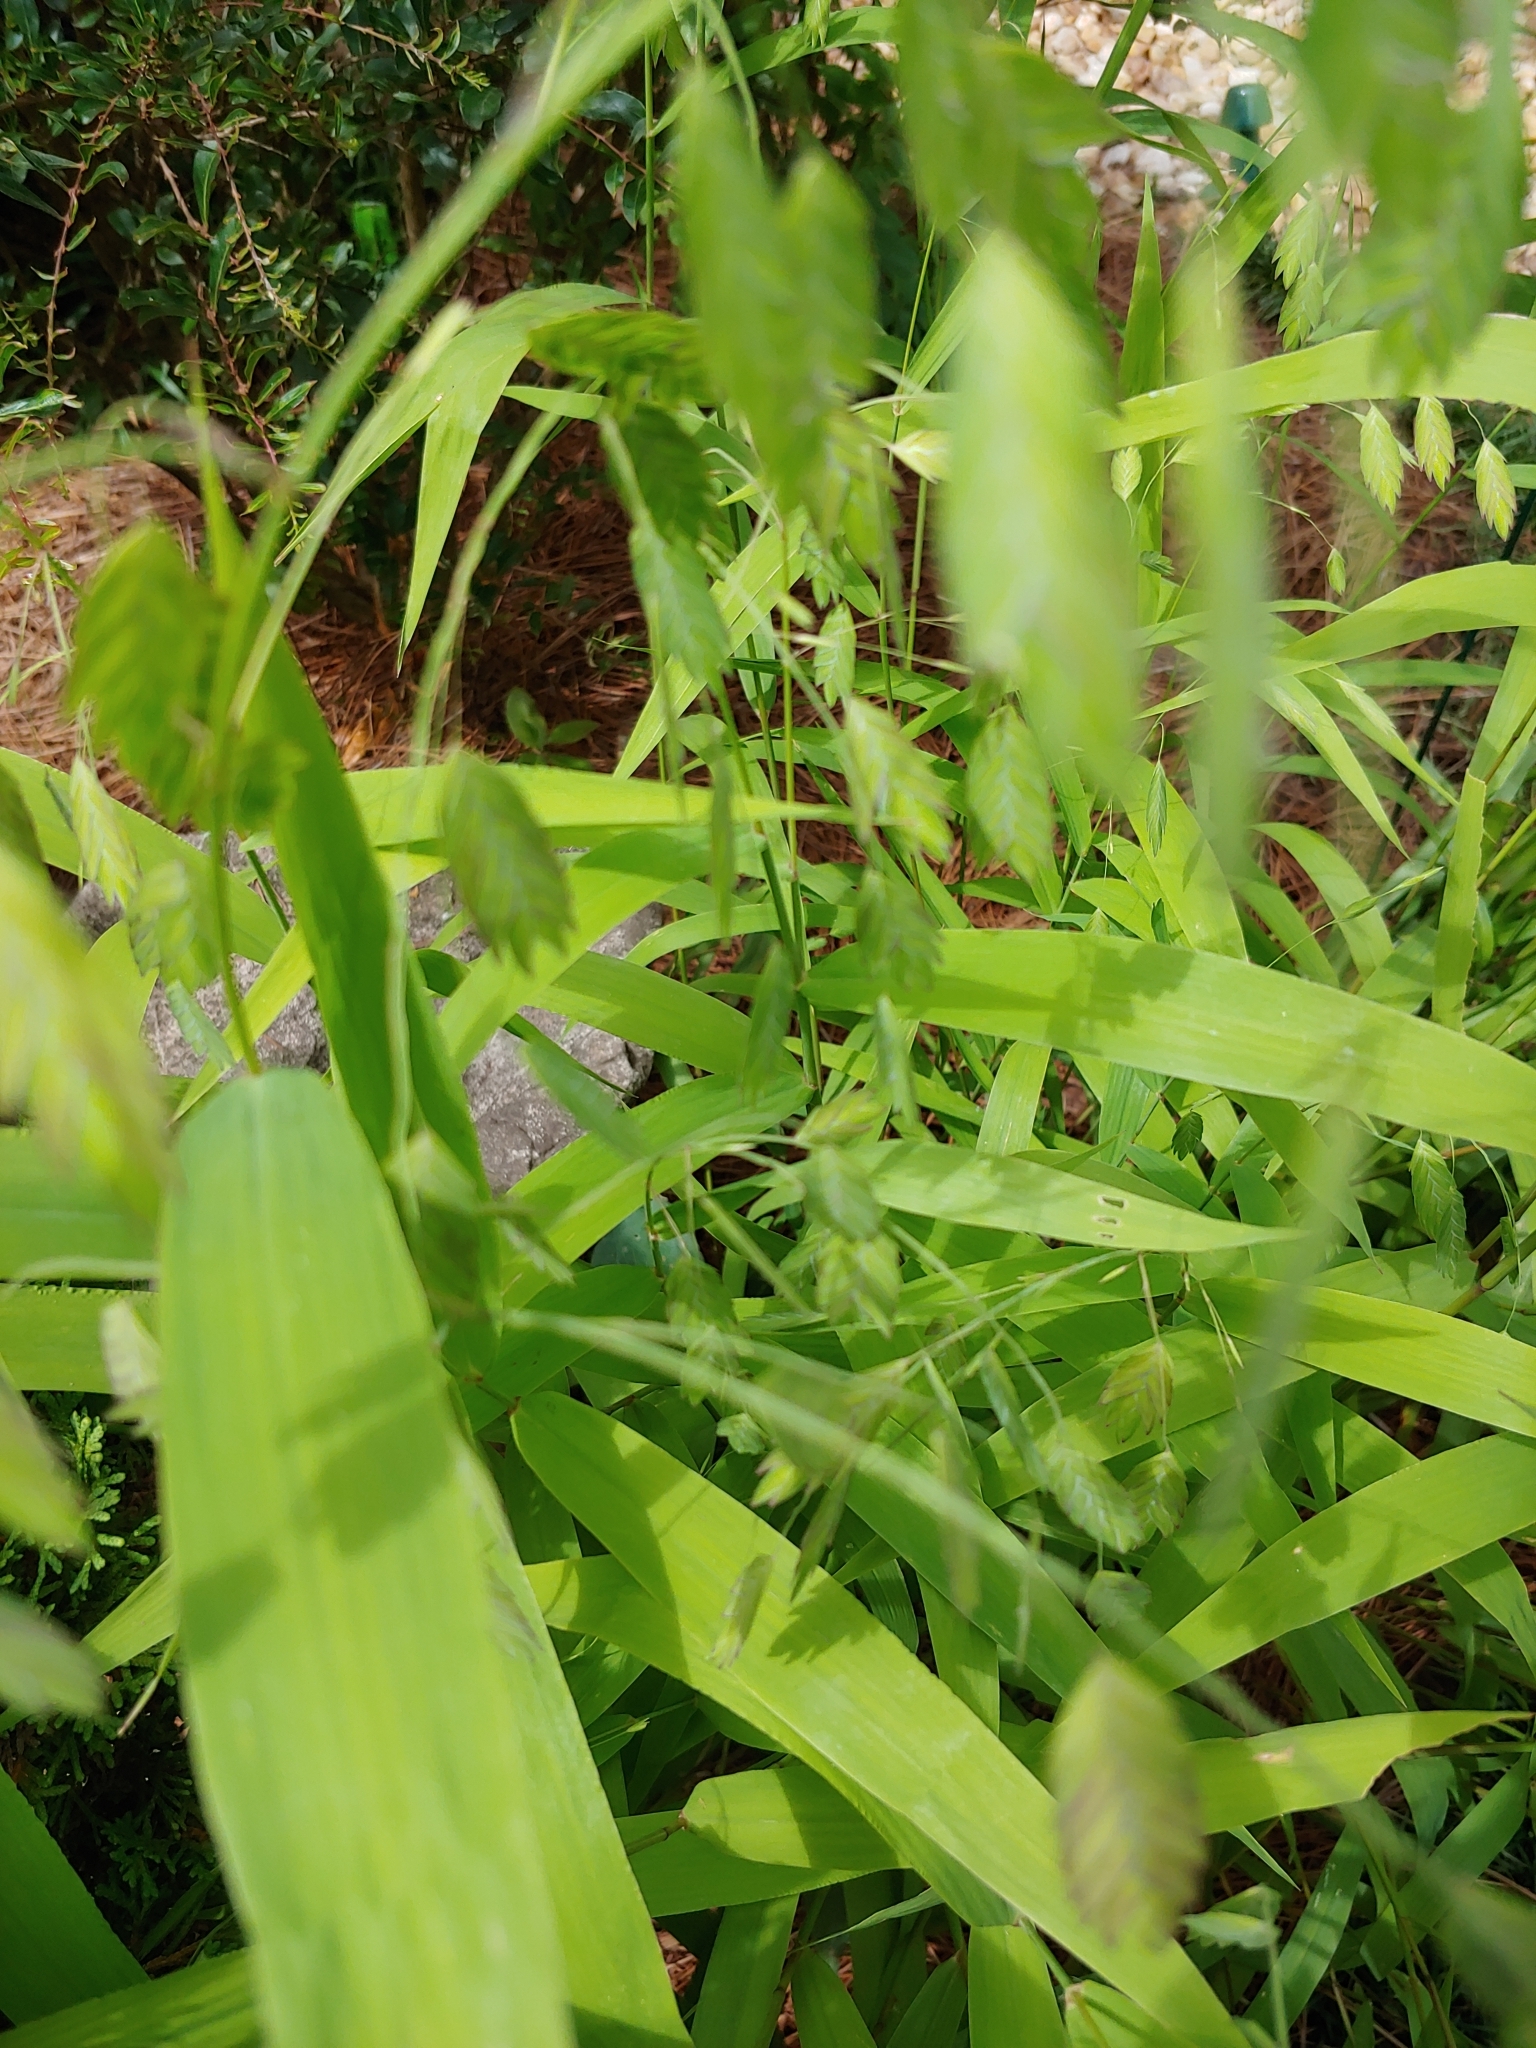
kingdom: Plantae
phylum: Tracheophyta
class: Liliopsida
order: Poales
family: Poaceae
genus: Chasmanthium
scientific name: Chasmanthium latifolium
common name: Broad-leaved chasmanthium
